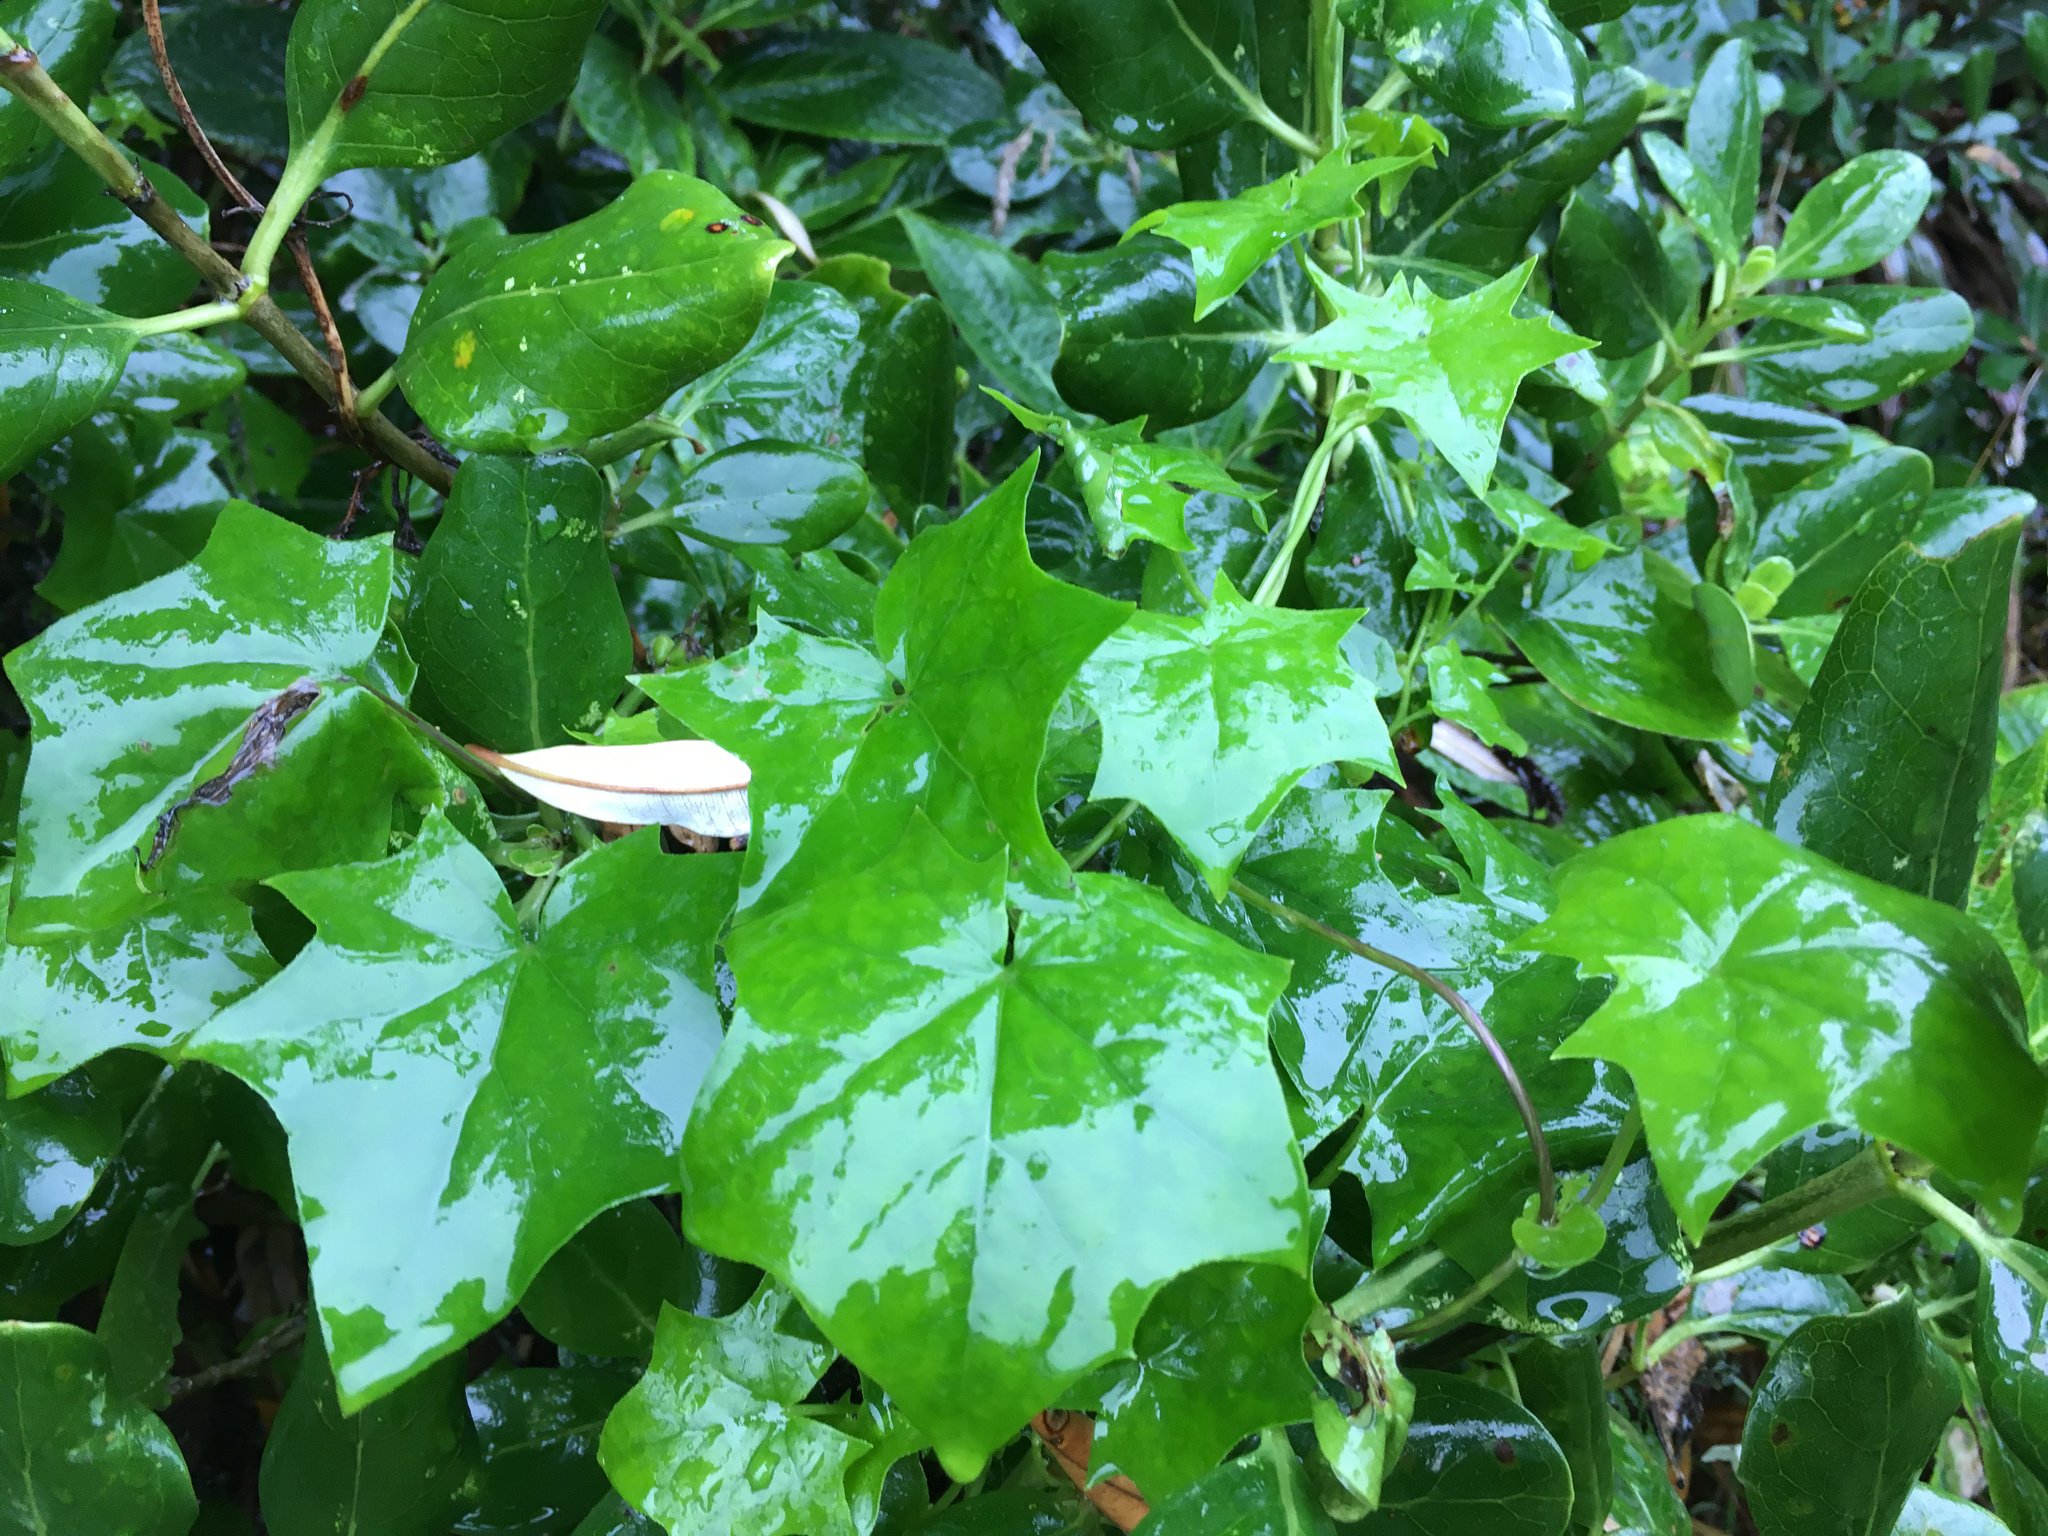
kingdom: Plantae
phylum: Tracheophyta
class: Magnoliopsida
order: Asterales
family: Asteraceae
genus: Delairea
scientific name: Delairea odorata
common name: Cape-ivy
